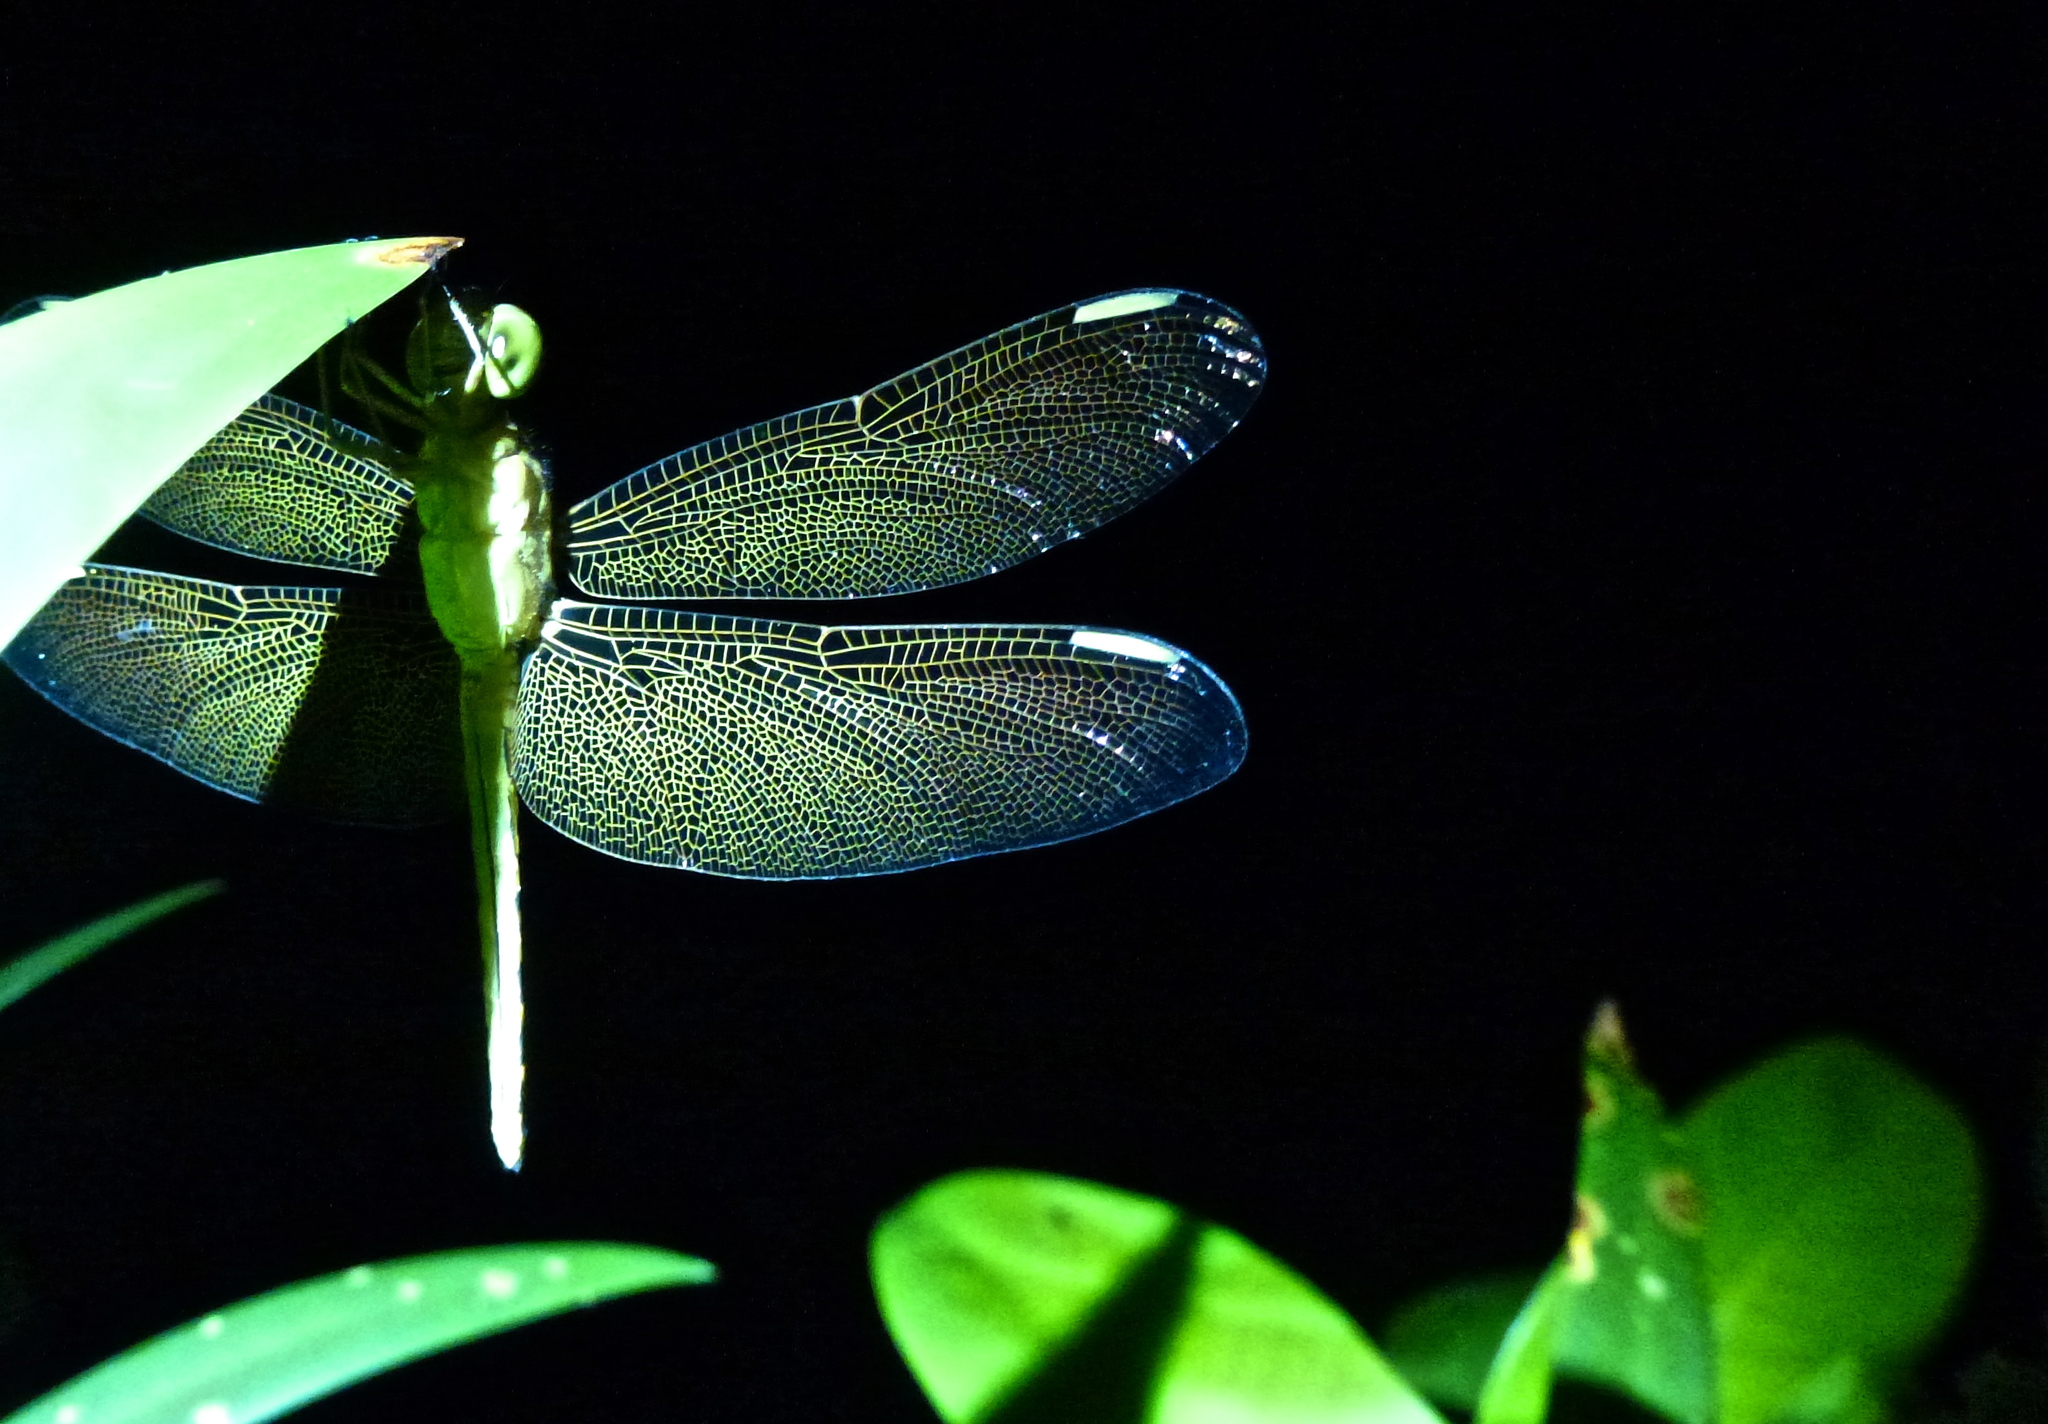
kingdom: Animalia
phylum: Arthropoda
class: Insecta
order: Odonata
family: Libellulidae
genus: Neurothemis
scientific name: Neurothemis ramburii
